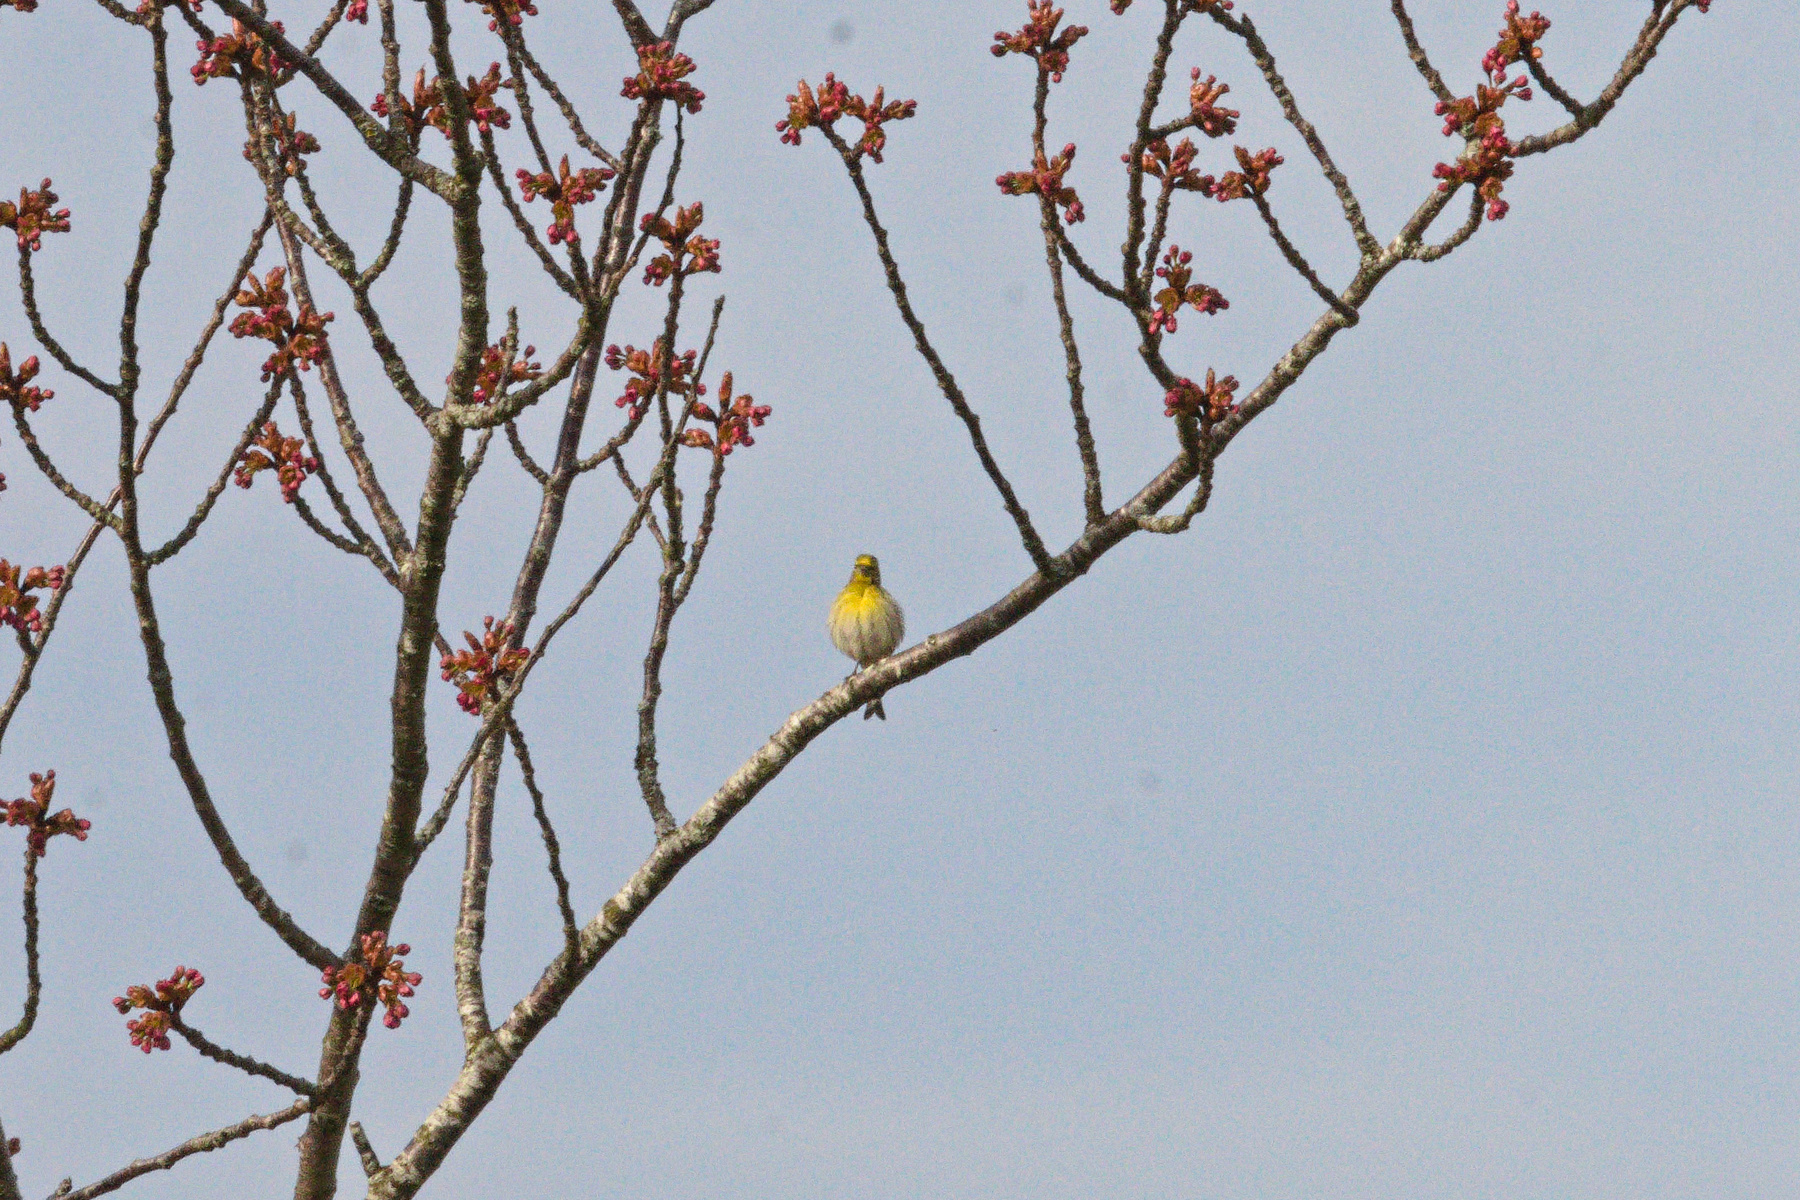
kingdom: Animalia
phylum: Chordata
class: Aves
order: Passeriformes
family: Fringillidae
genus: Serinus
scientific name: Serinus serinus
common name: European serin
